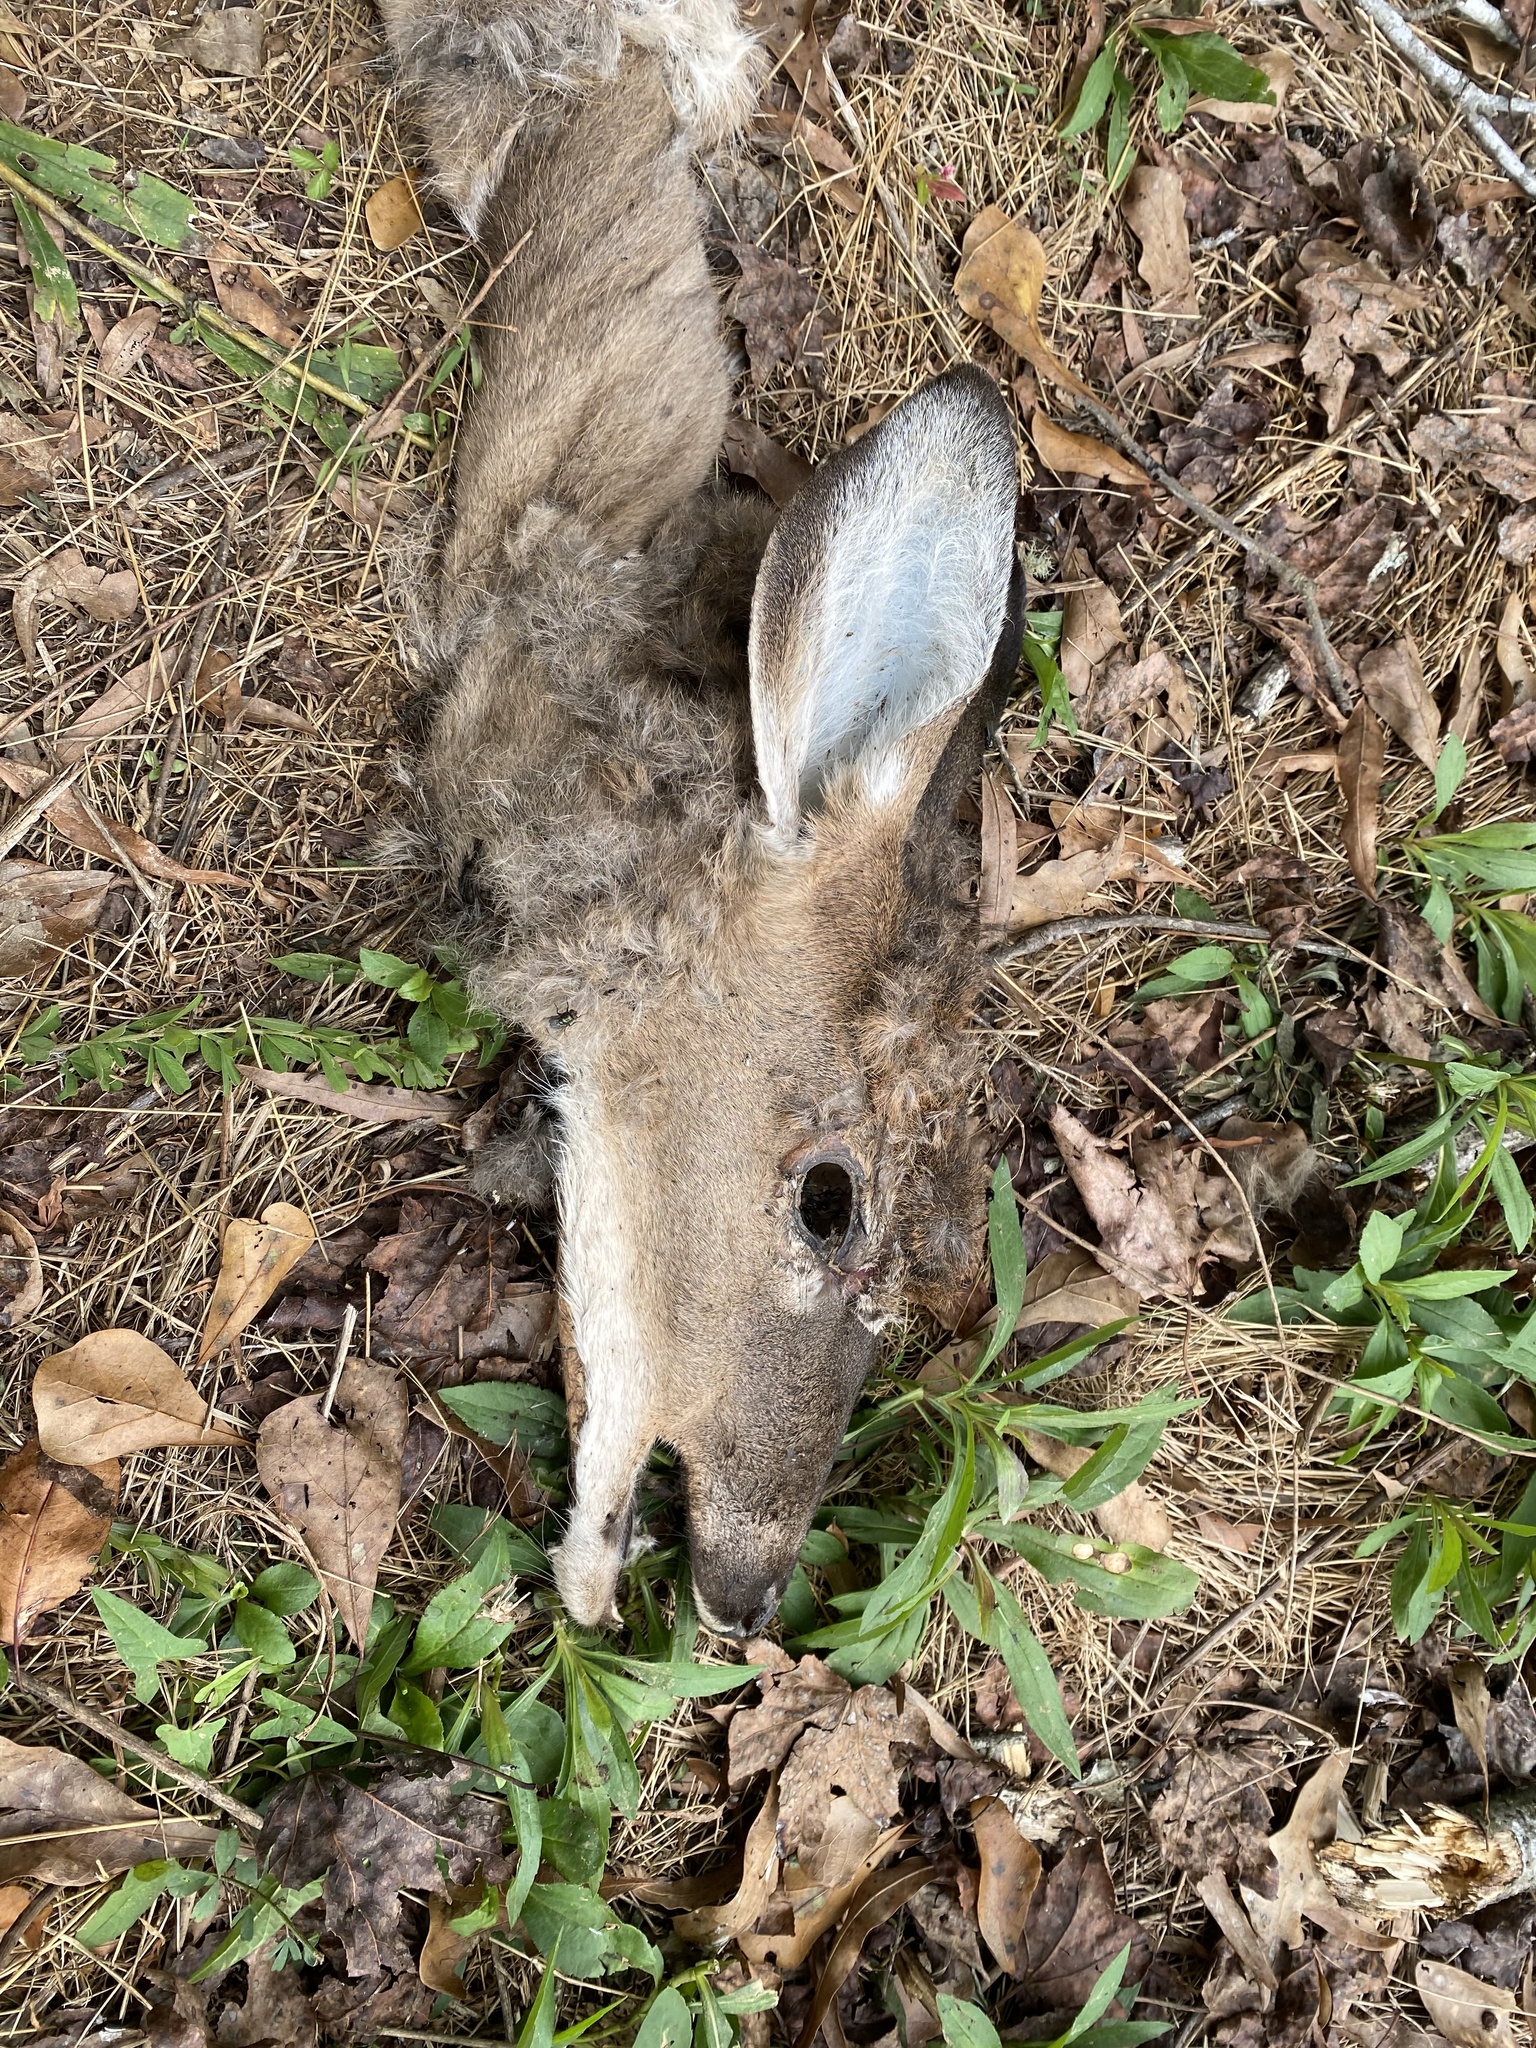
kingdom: Animalia
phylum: Chordata
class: Mammalia
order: Artiodactyla
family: Cervidae
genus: Odocoileus
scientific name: Odocoileus virginianus
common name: White-tailed deer
